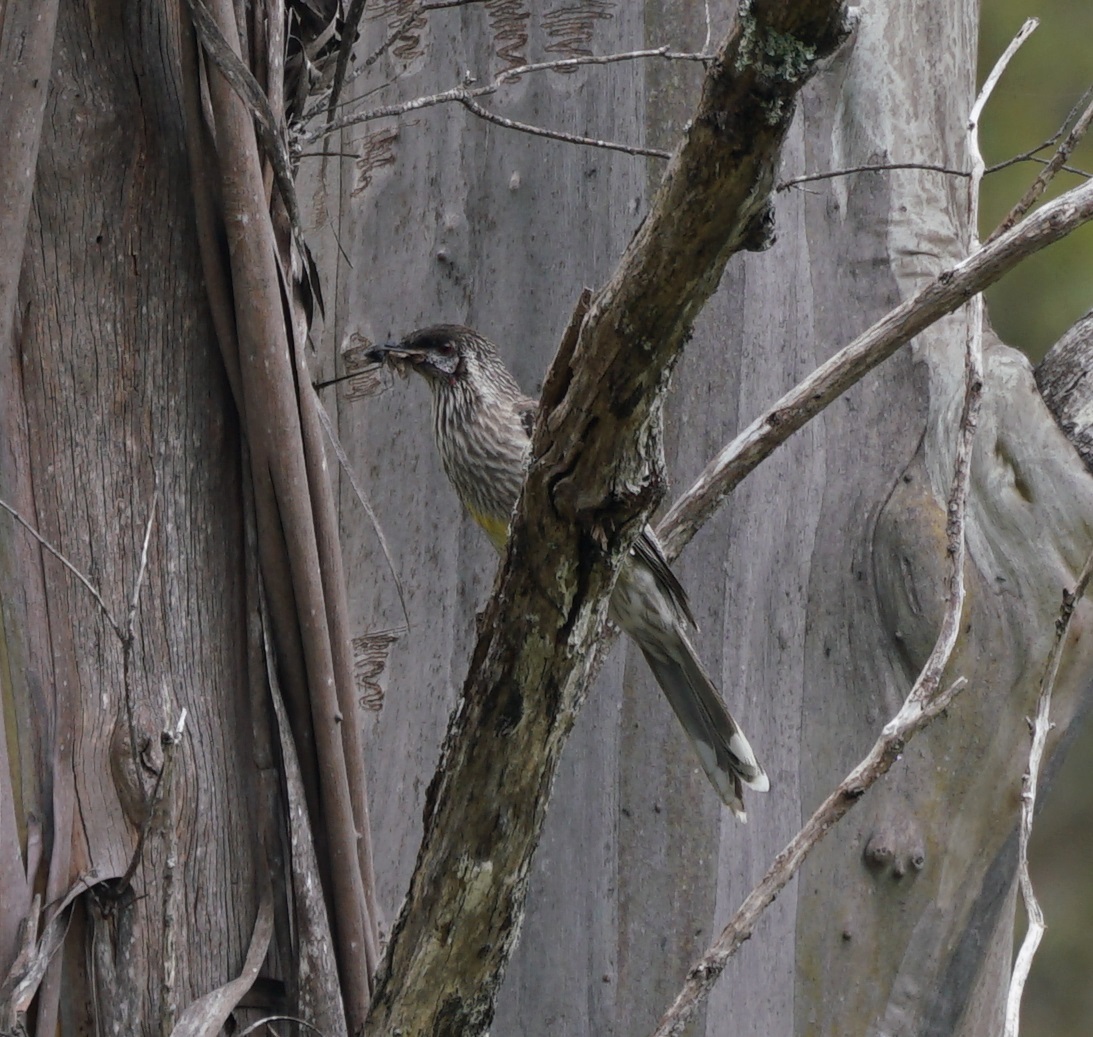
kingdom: Animalia
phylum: Chordata
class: Aves
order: Passeriformes
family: Meliphagidae
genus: Anthochaera
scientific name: Anthochaera carunculata
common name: Red wattlebird
